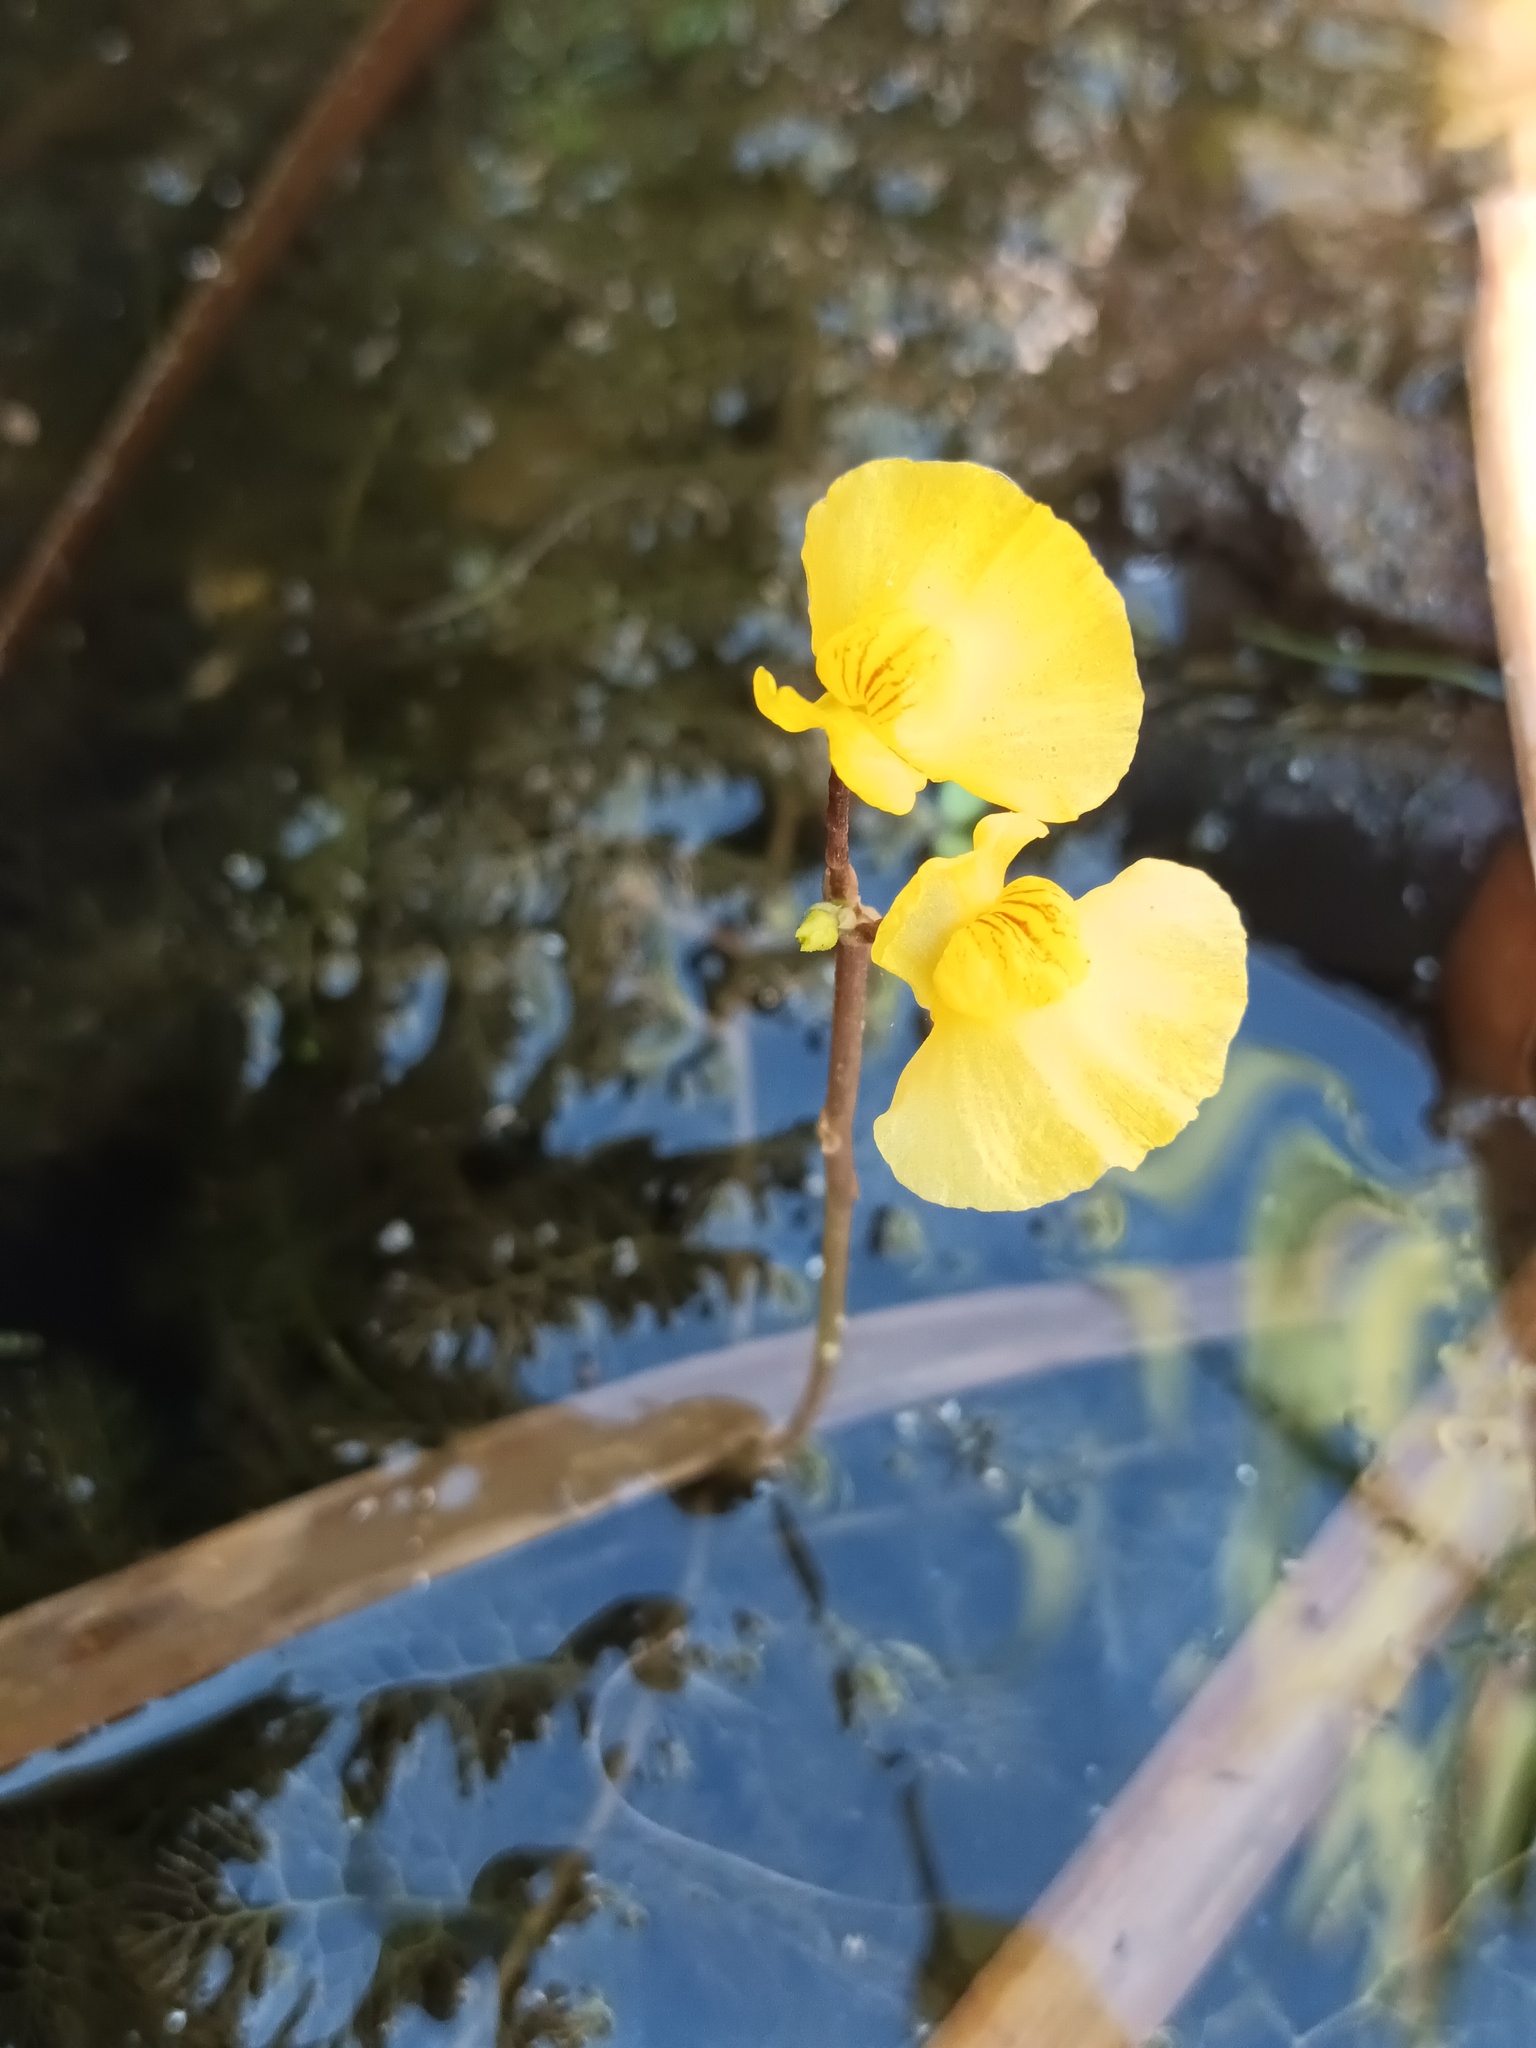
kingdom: Plantae
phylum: Tracheophyta
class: Magnoliopsida
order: Lamiales
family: Lentibulariaceae
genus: Utricularia
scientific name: Utricularia australis
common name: Bladderwort
